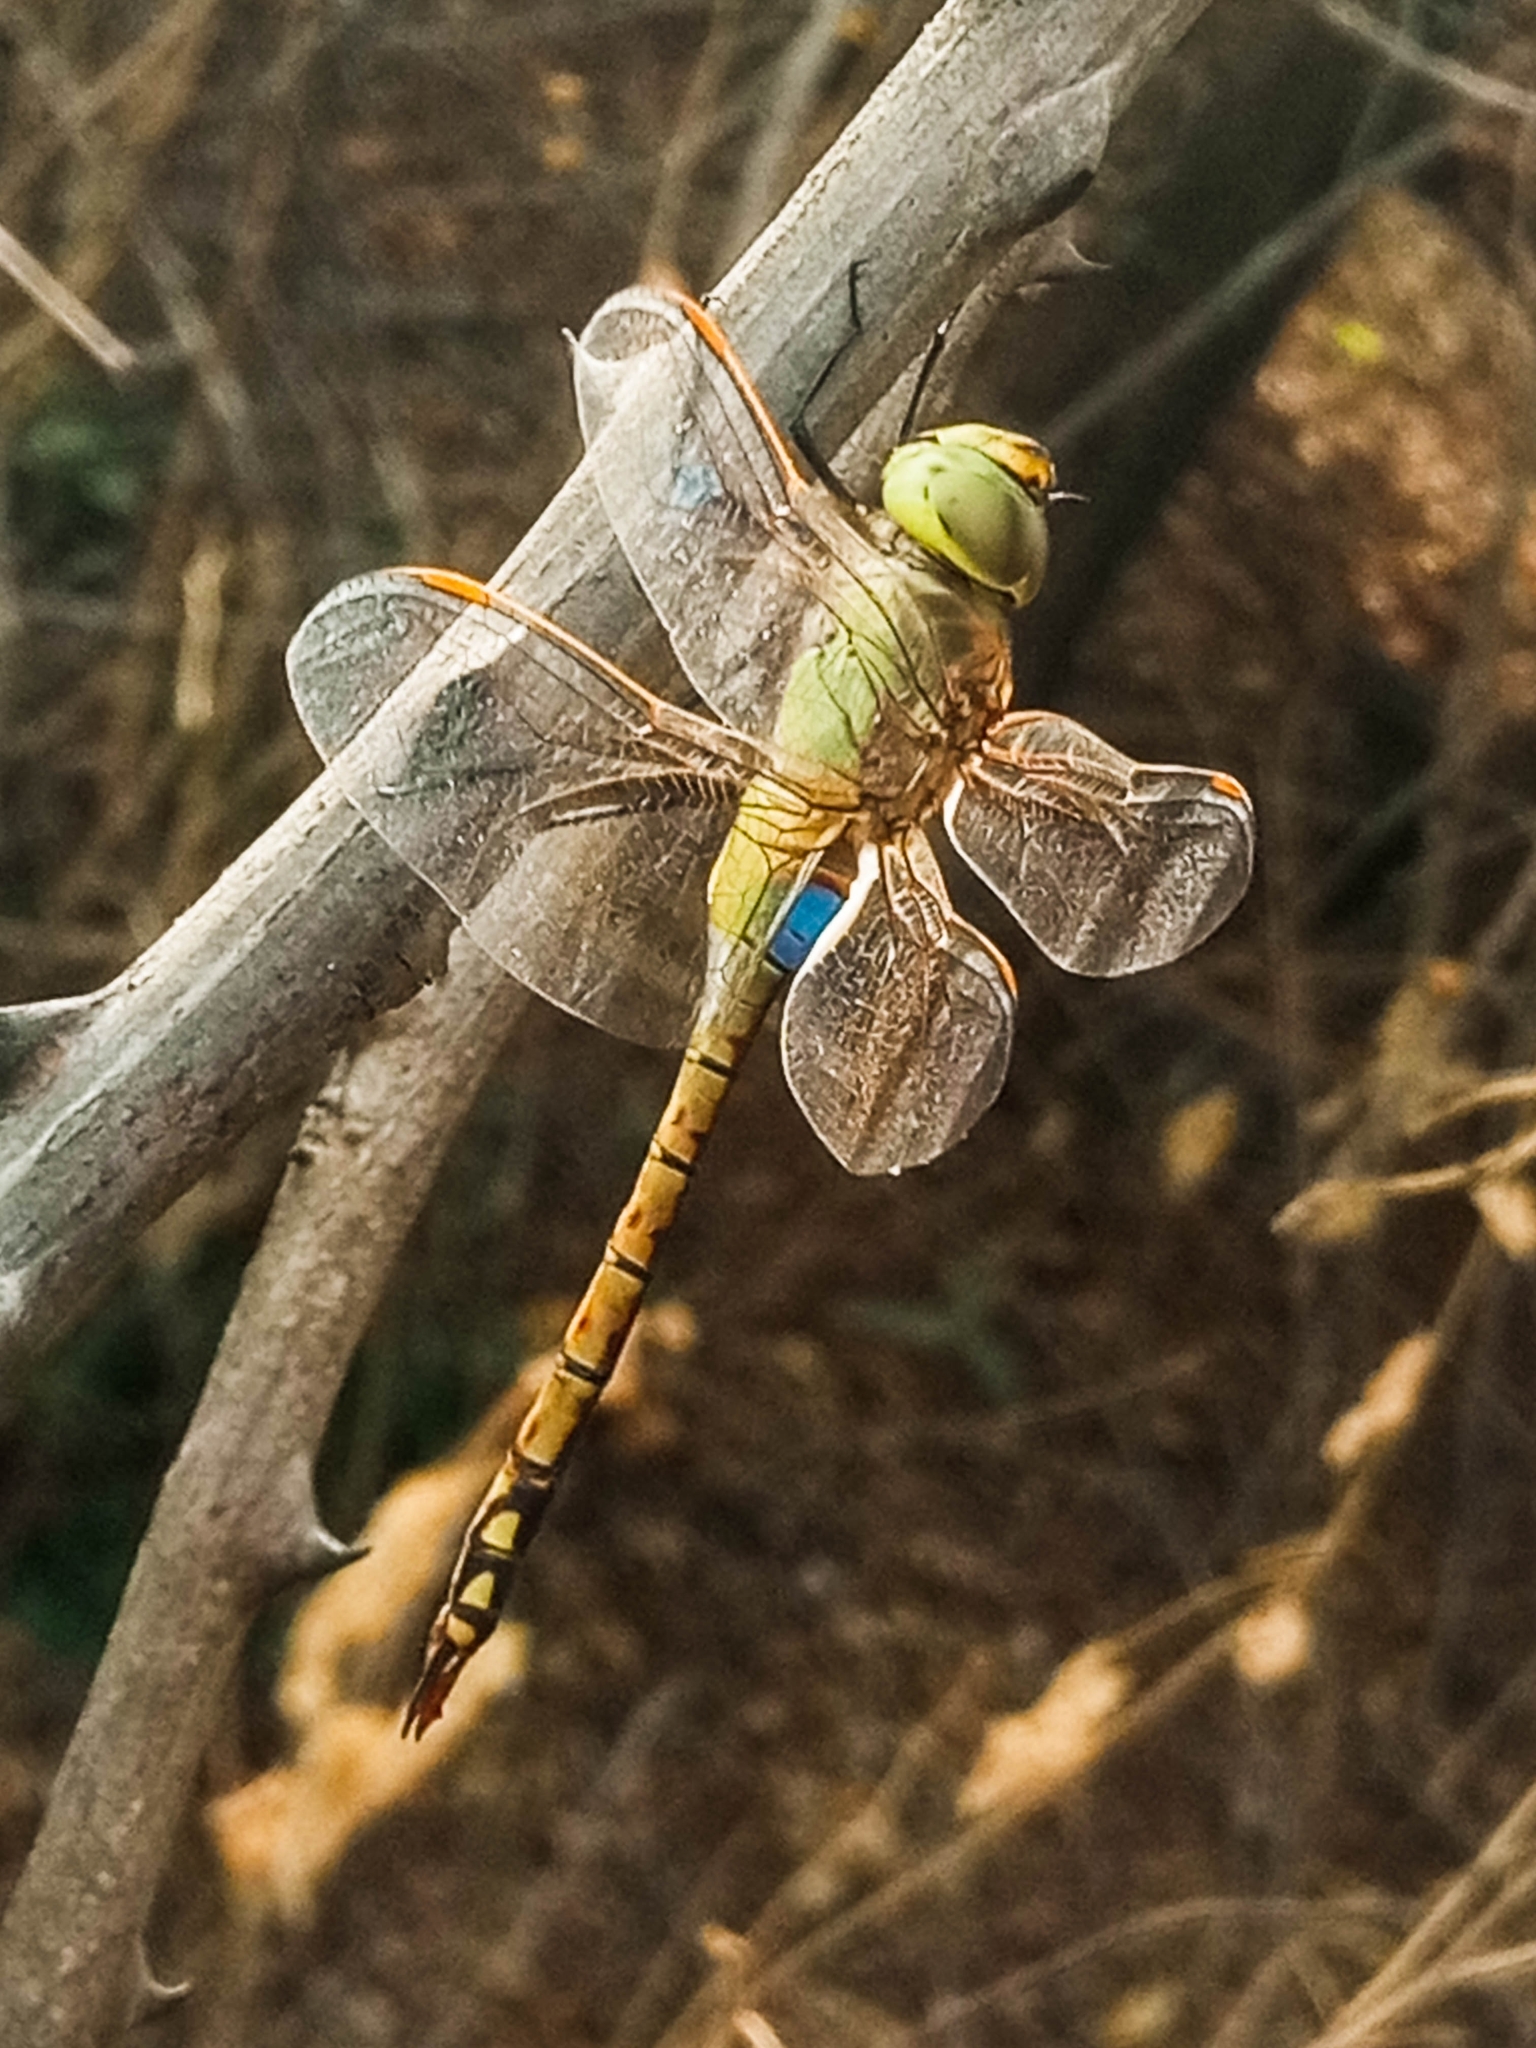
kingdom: Animalia
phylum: Arthropoda
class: Insecta
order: Odonata
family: Aeshnidae
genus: Anax
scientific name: Anax ephippiger
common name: Vagrant emperor
